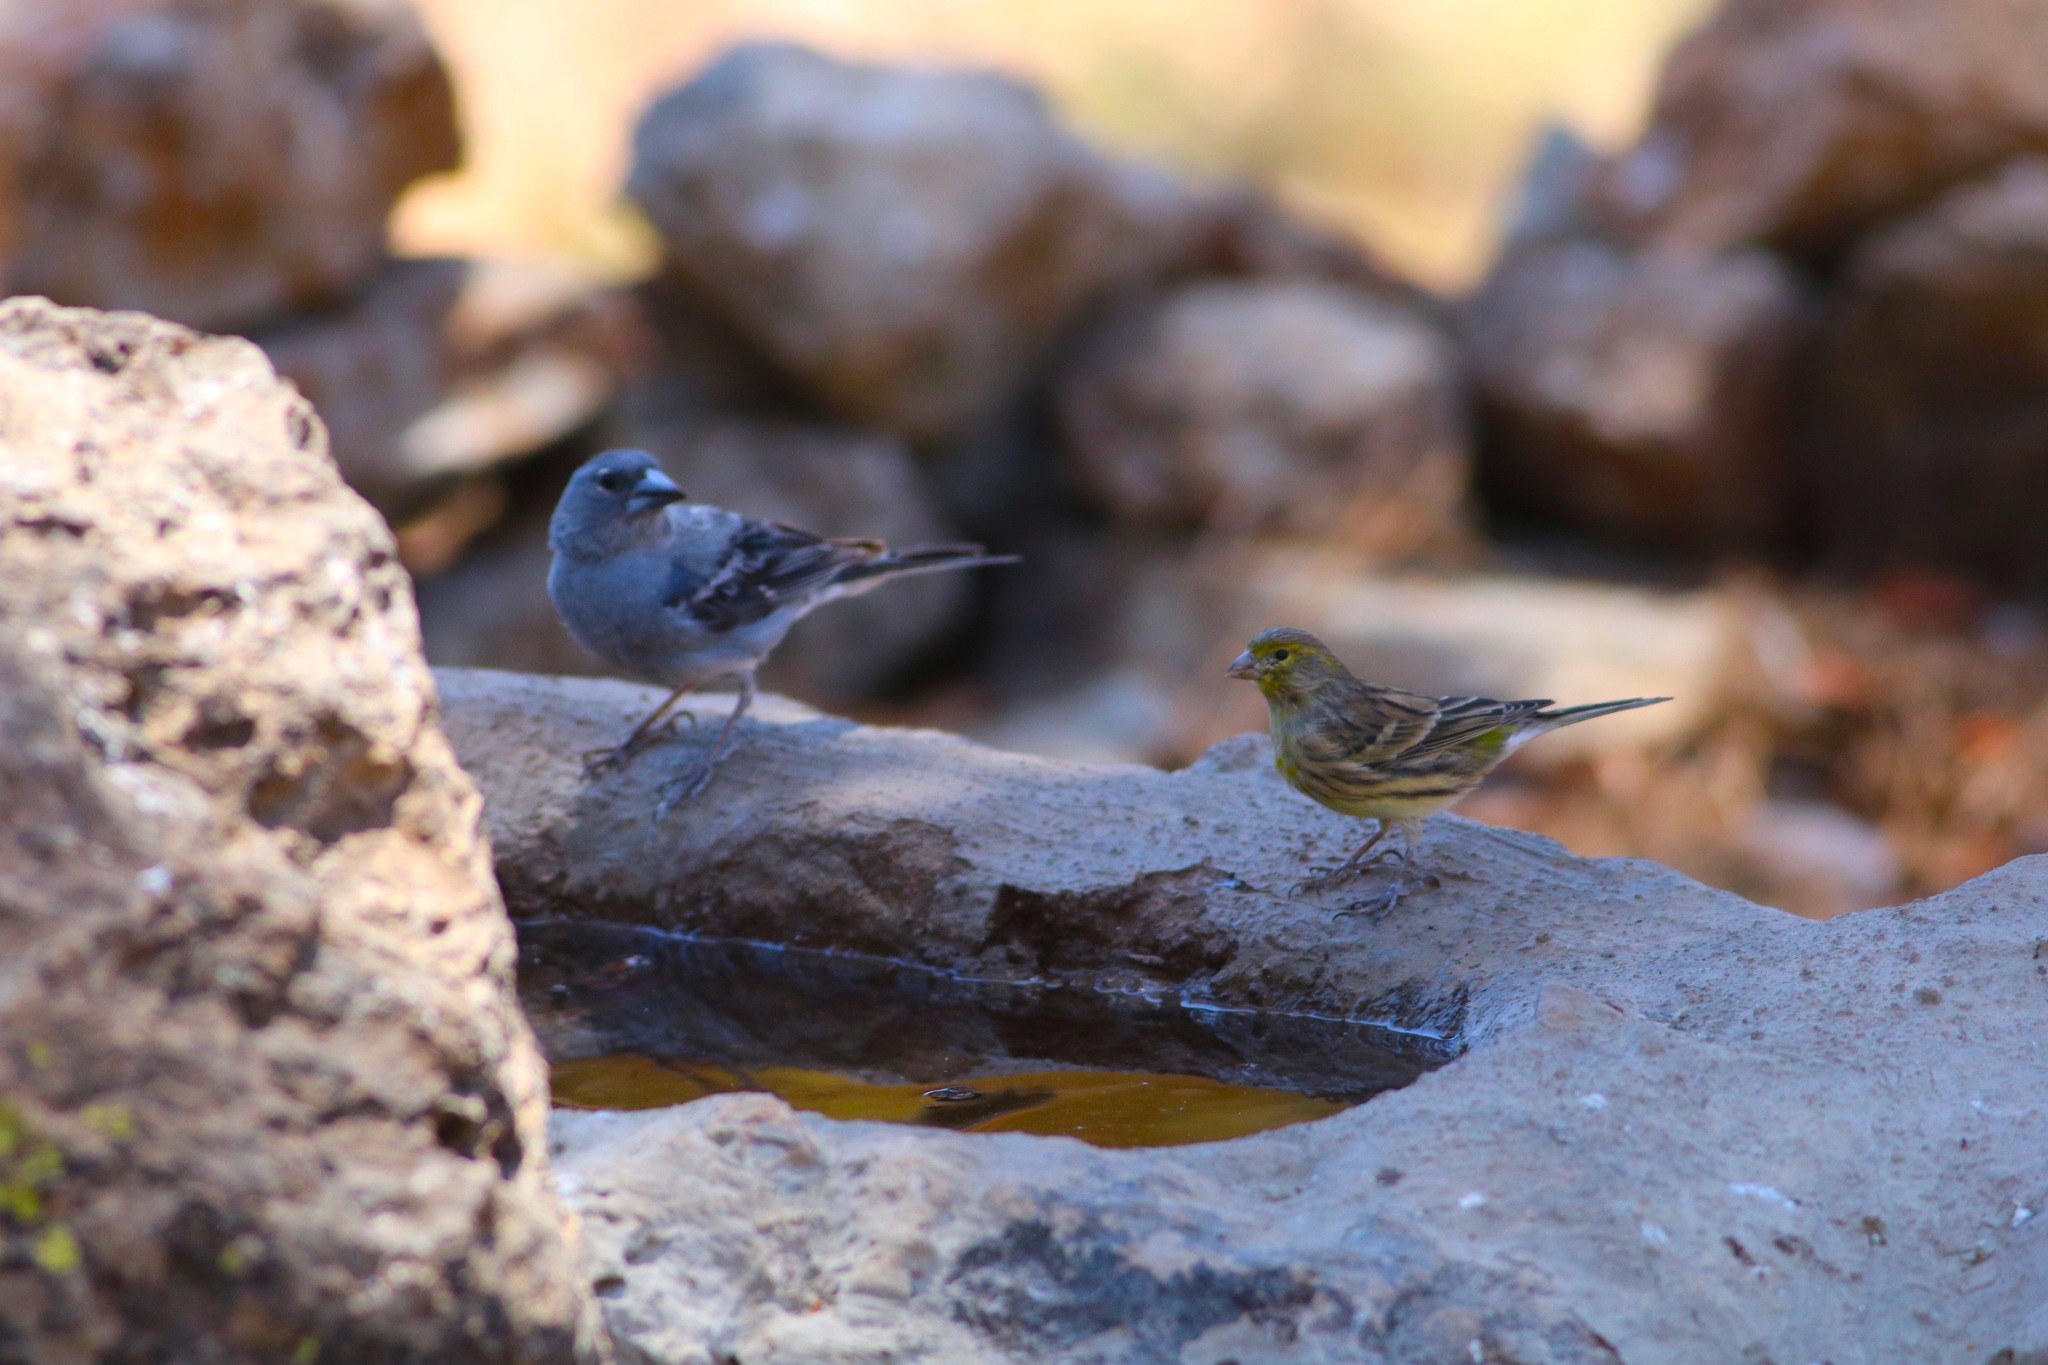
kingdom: Animalia
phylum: Chordata
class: Aves
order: Passeriformes
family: Fringillidae
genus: Serinus
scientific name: Serinus canaria
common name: Atlantic canary
